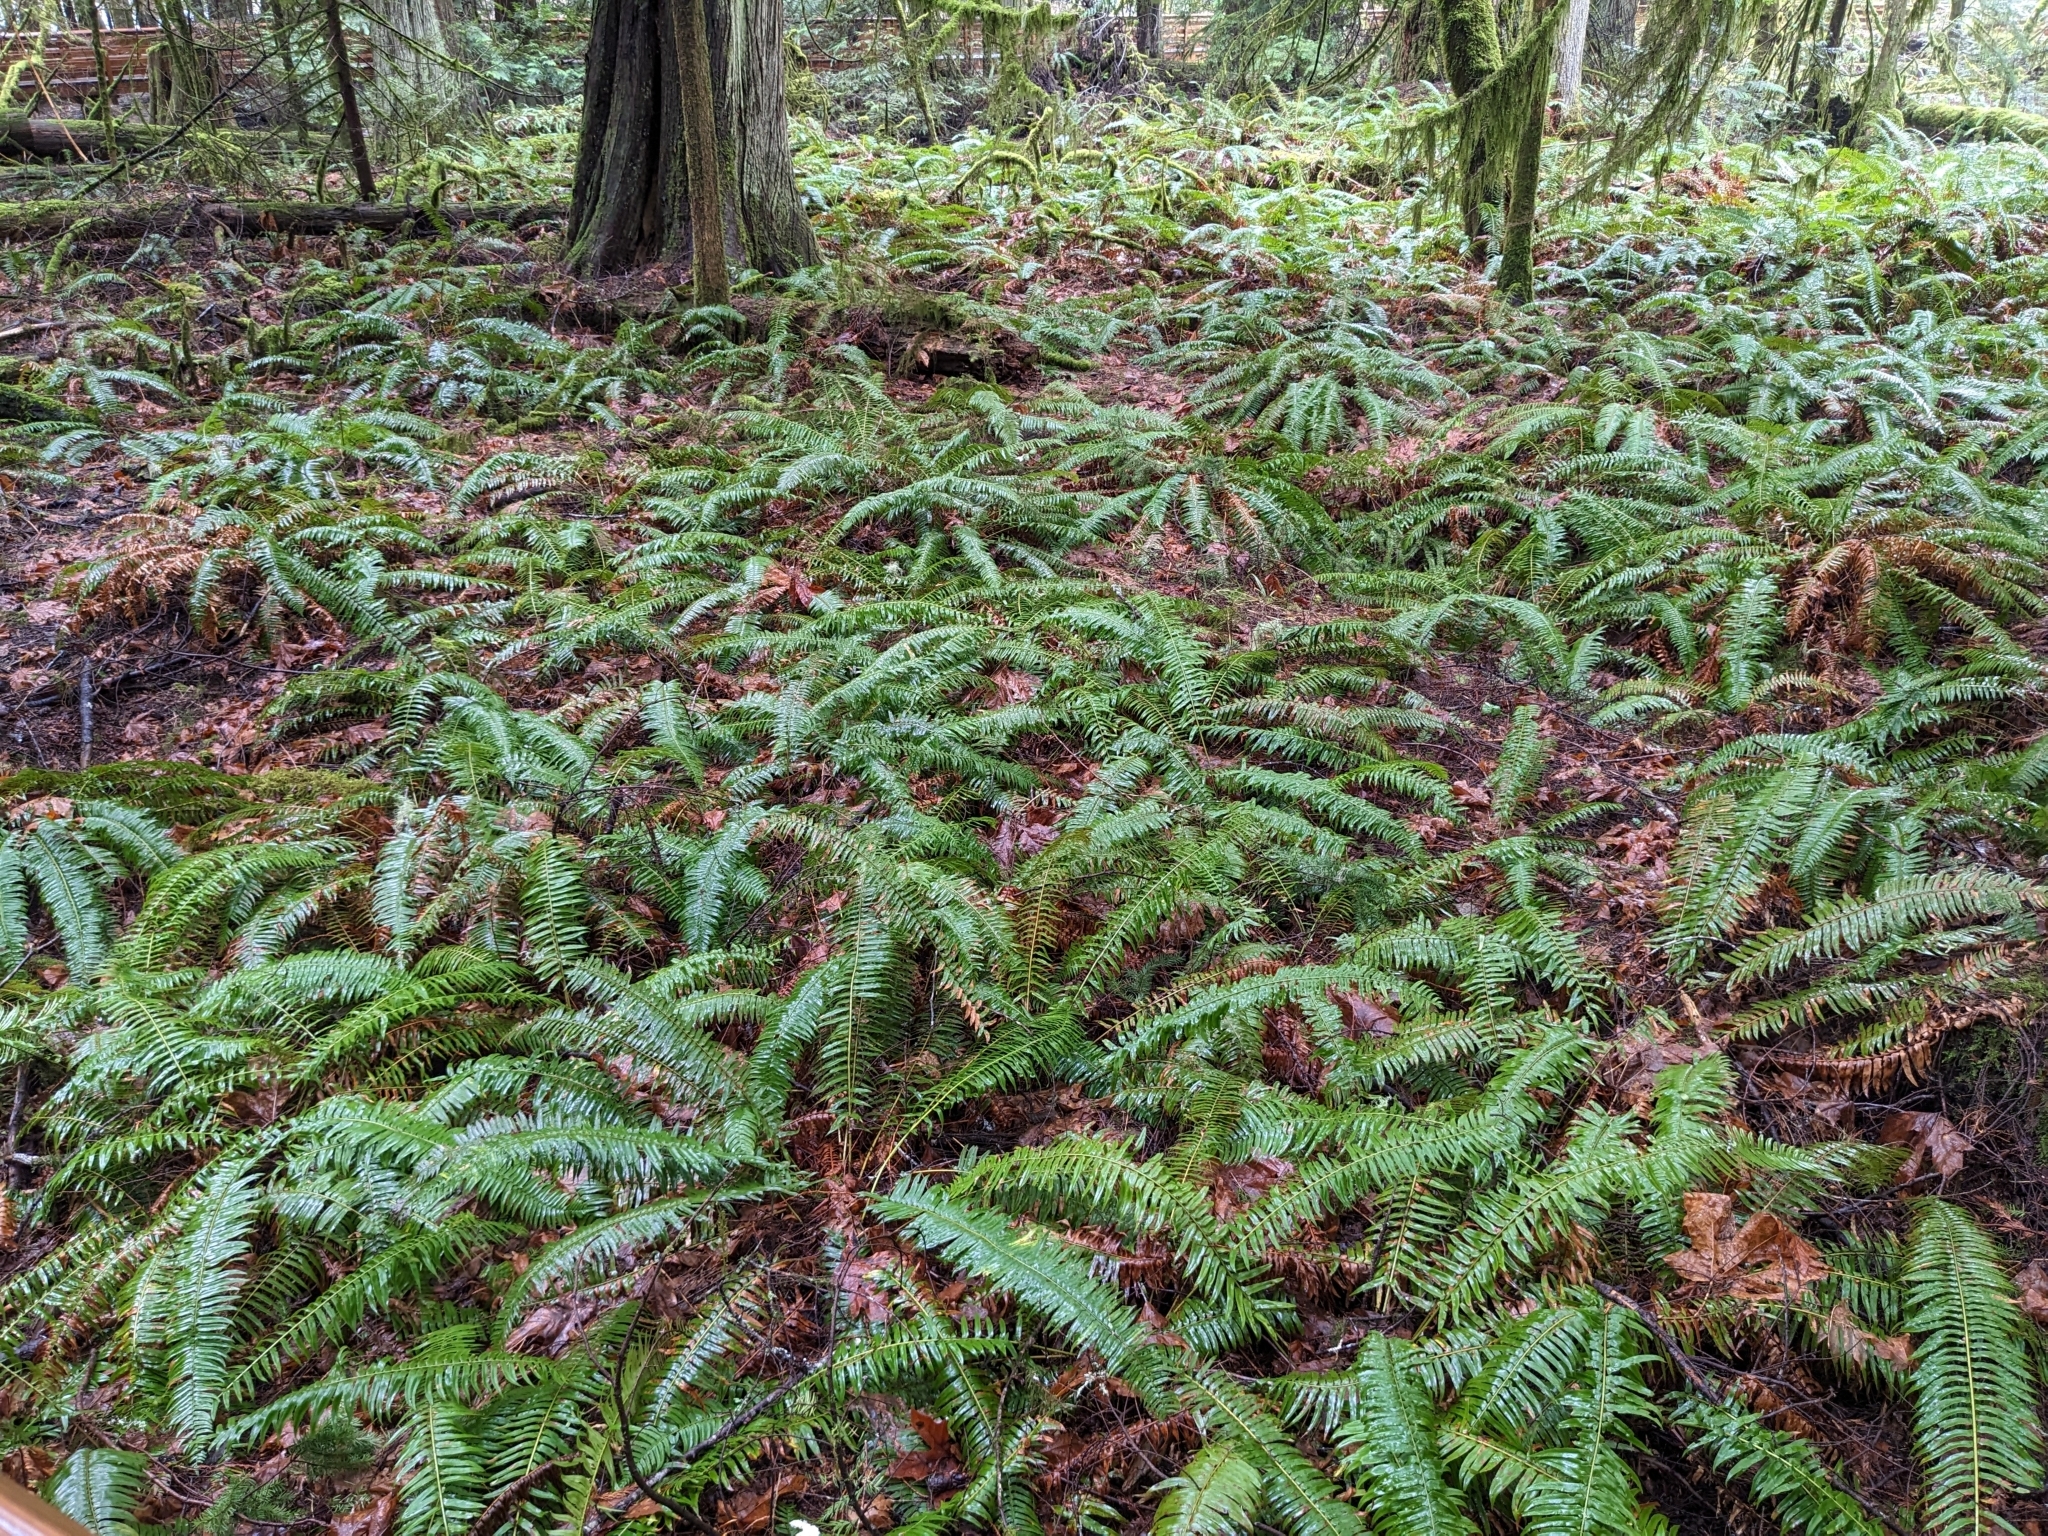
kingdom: Plantae
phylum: Tracheophyta
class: Polypodiopsida
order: Polypodiales
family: Dryopteridaceae
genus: Polystichum
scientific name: Polystichum munitum
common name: Western sword-fern
